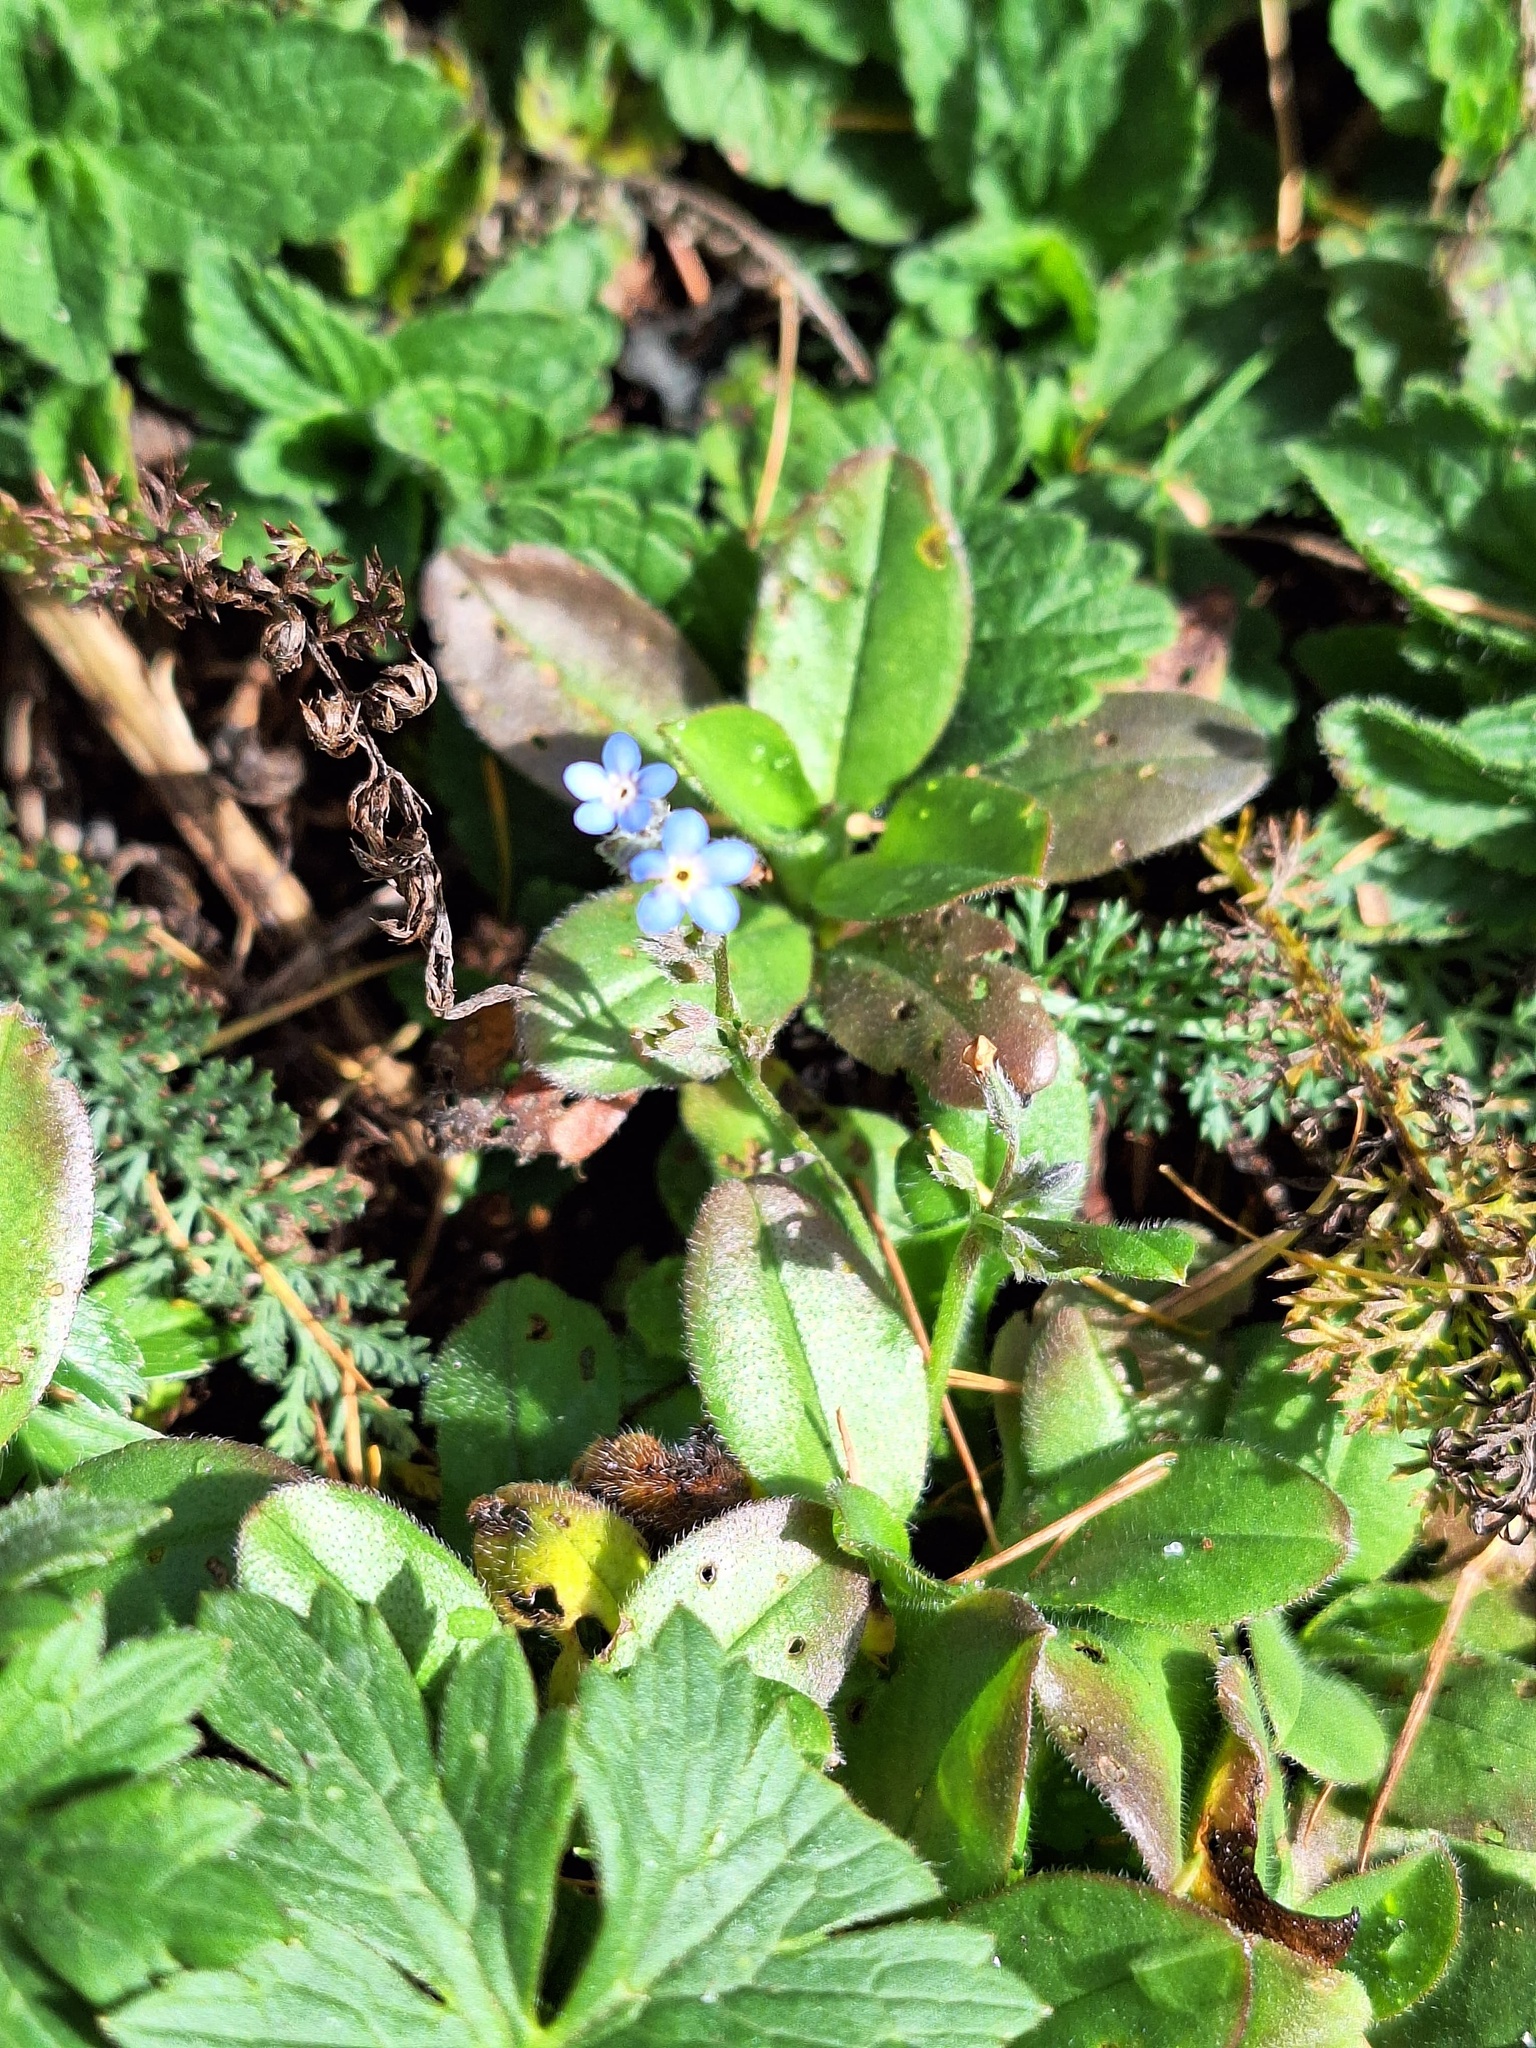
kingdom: Plantae
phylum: Tracheophyta
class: Magnoliopsida
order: Boraginales
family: Boraginaceae
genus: Myosotis
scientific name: Myosotis alpestris
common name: Alpine forget-me-not
